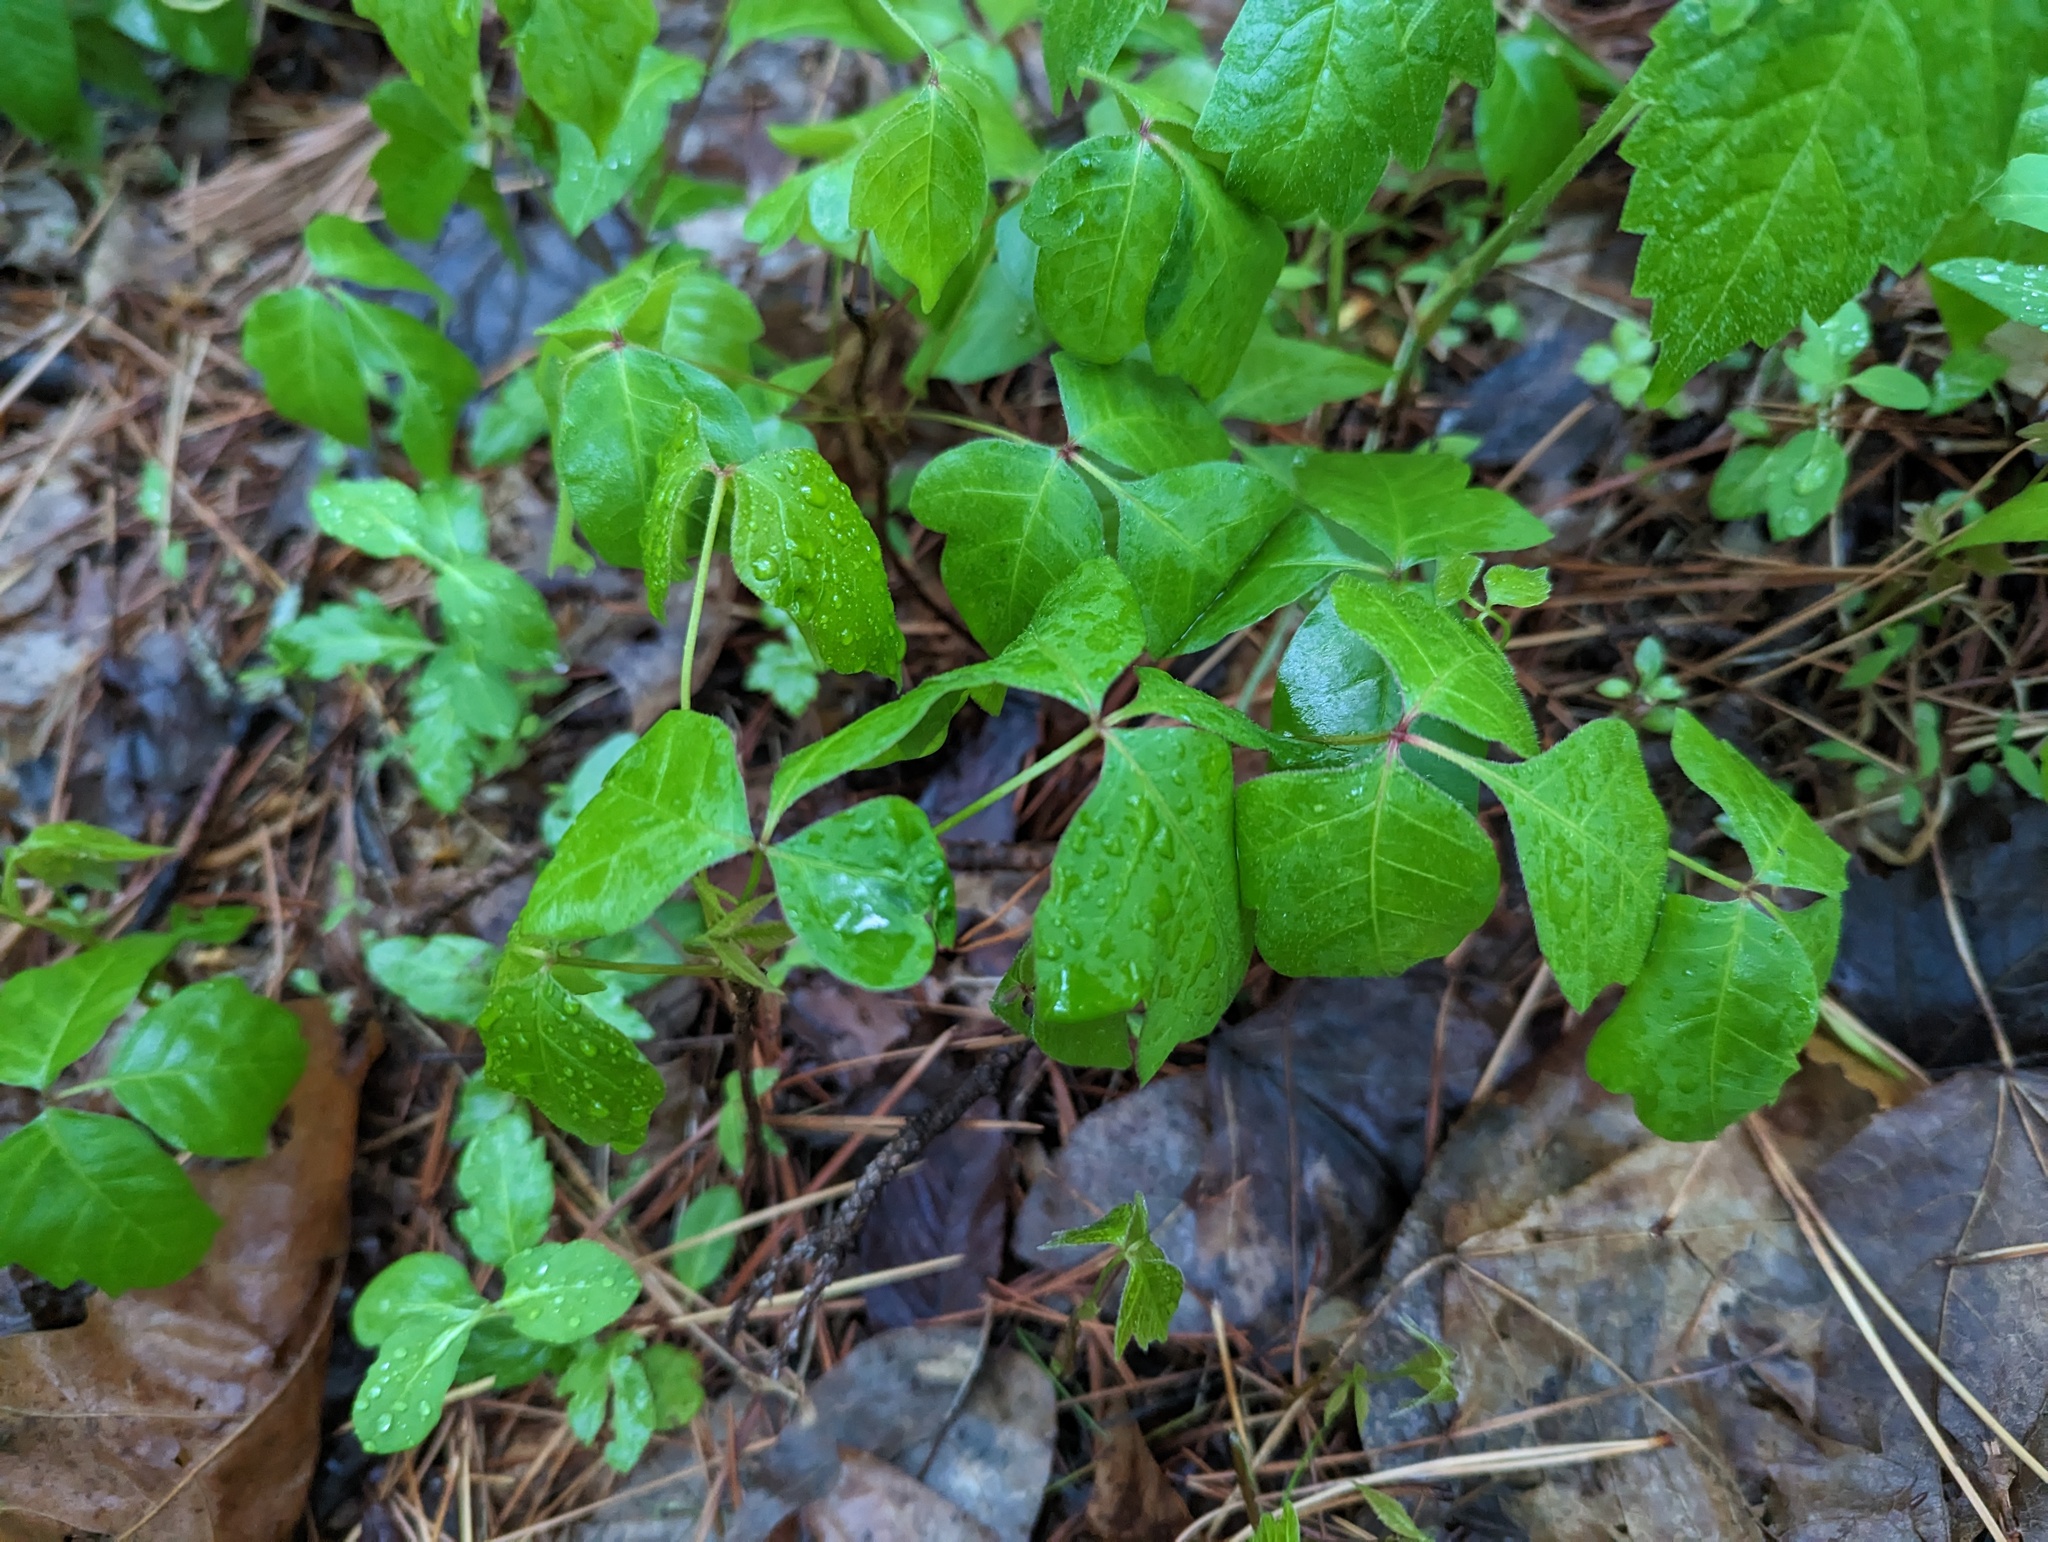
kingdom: Plantae
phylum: Tracheophyta
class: Magnoliopsida
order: Sapindales
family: Anacardiaceae
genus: Toxicodendron
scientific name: Toxicodendron radicans
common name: Poison ivy
